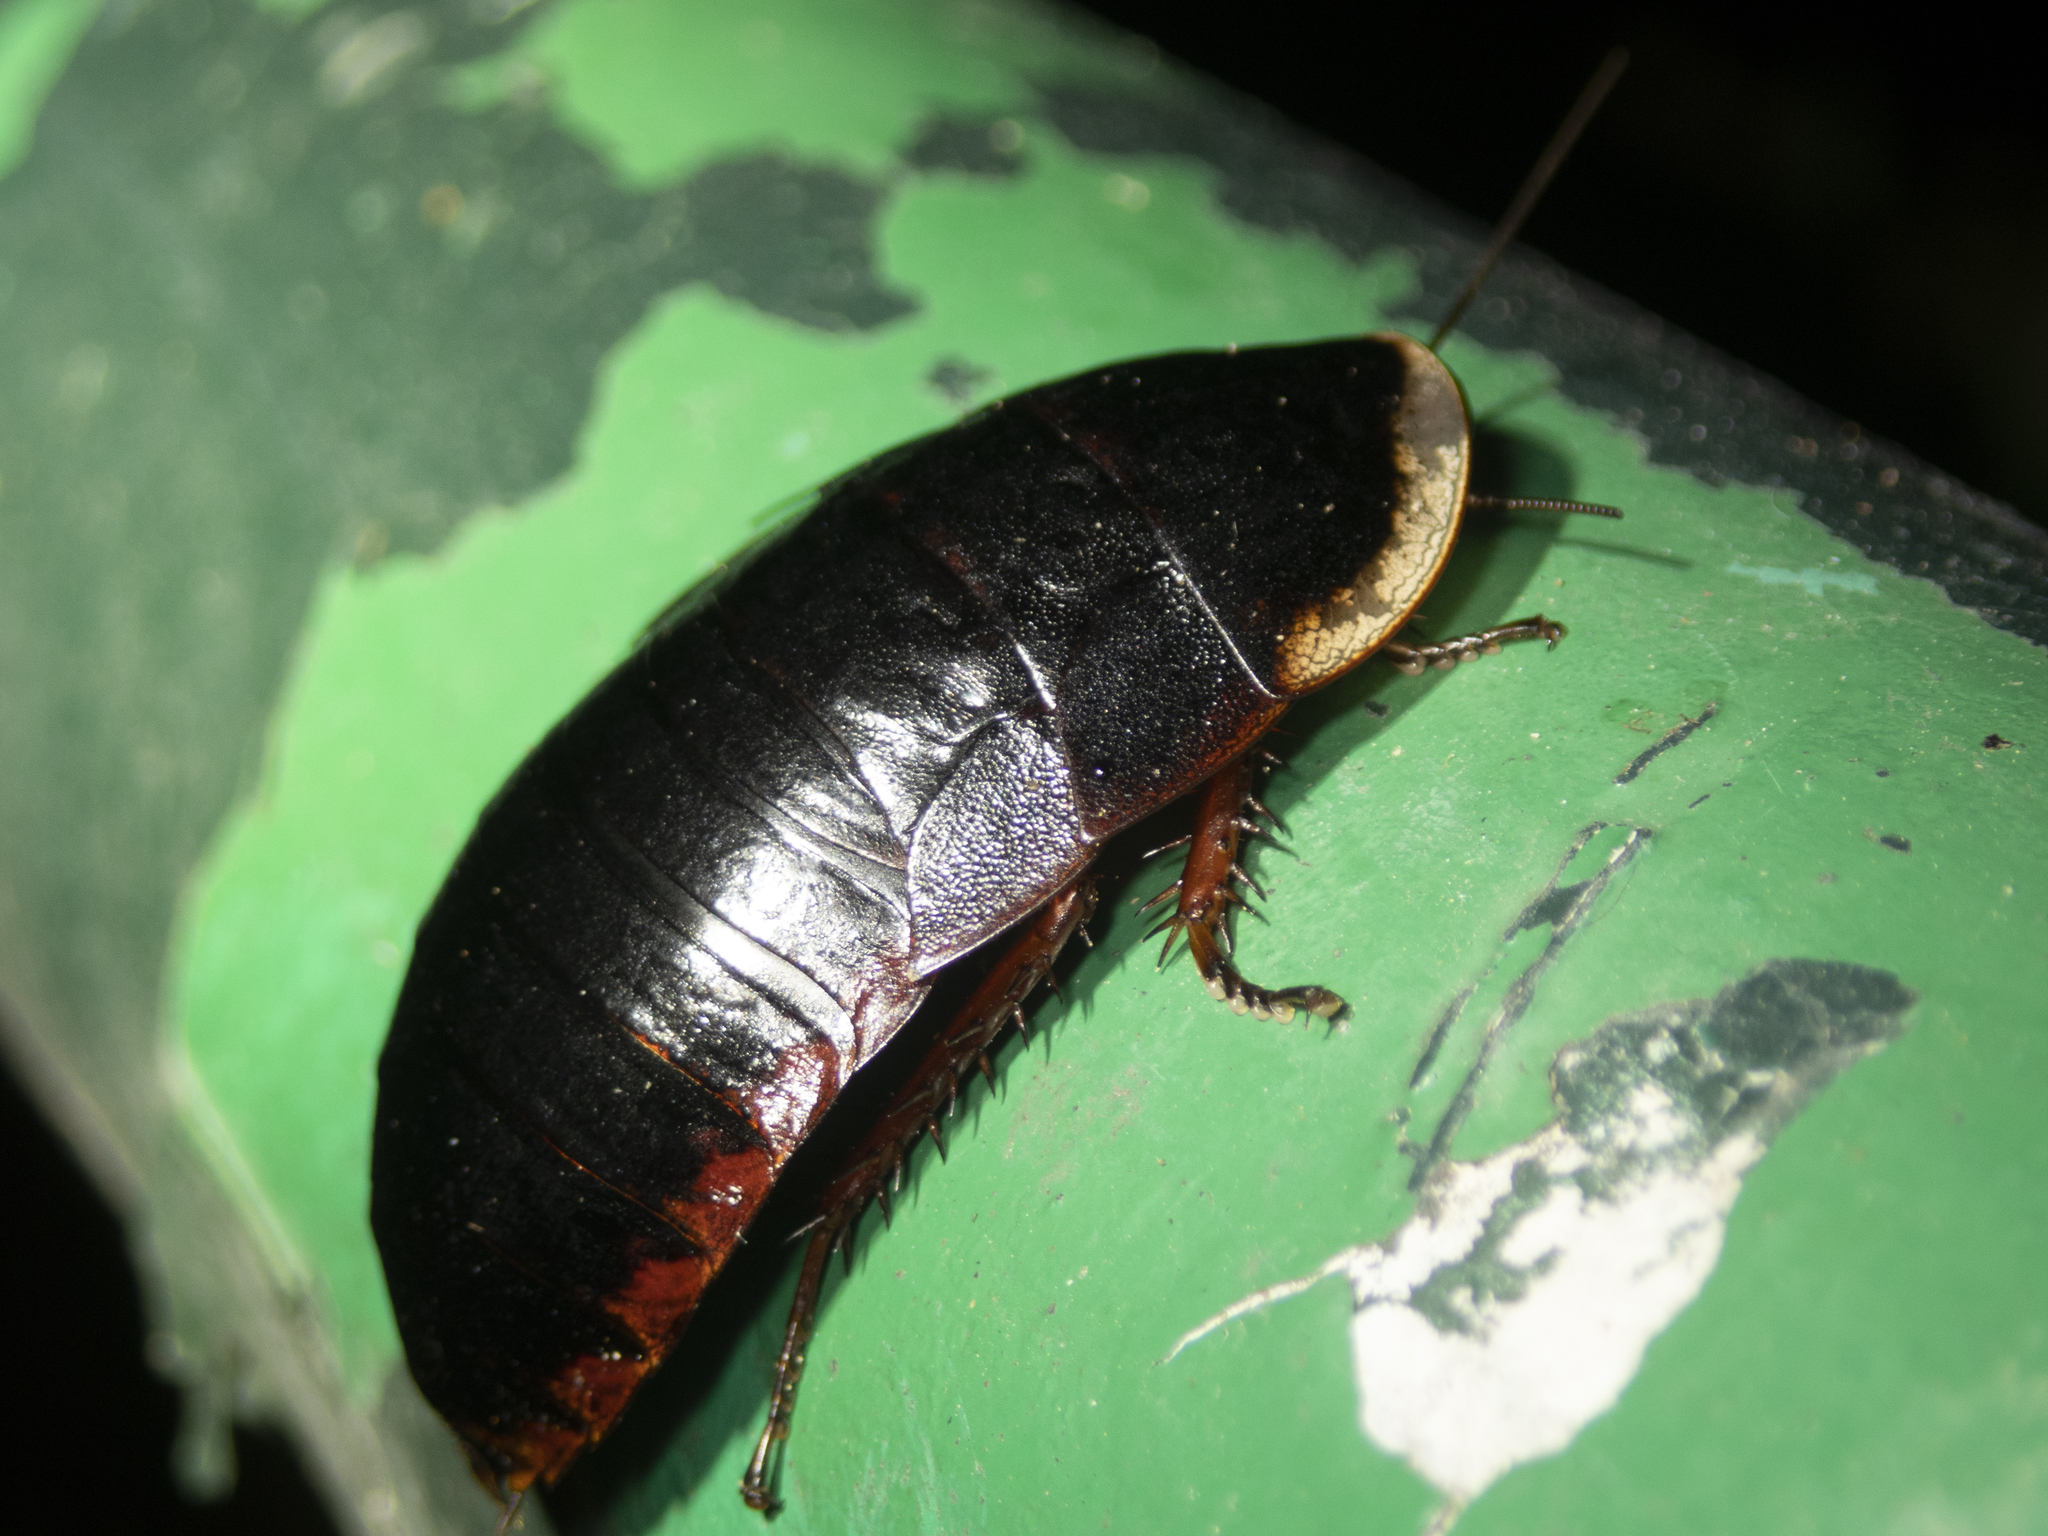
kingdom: Animalia
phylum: Arthropoda
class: Insecta
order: Blattodea
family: Blaberidae
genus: Opisthoplatia
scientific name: Opisthoplatia orientalis
